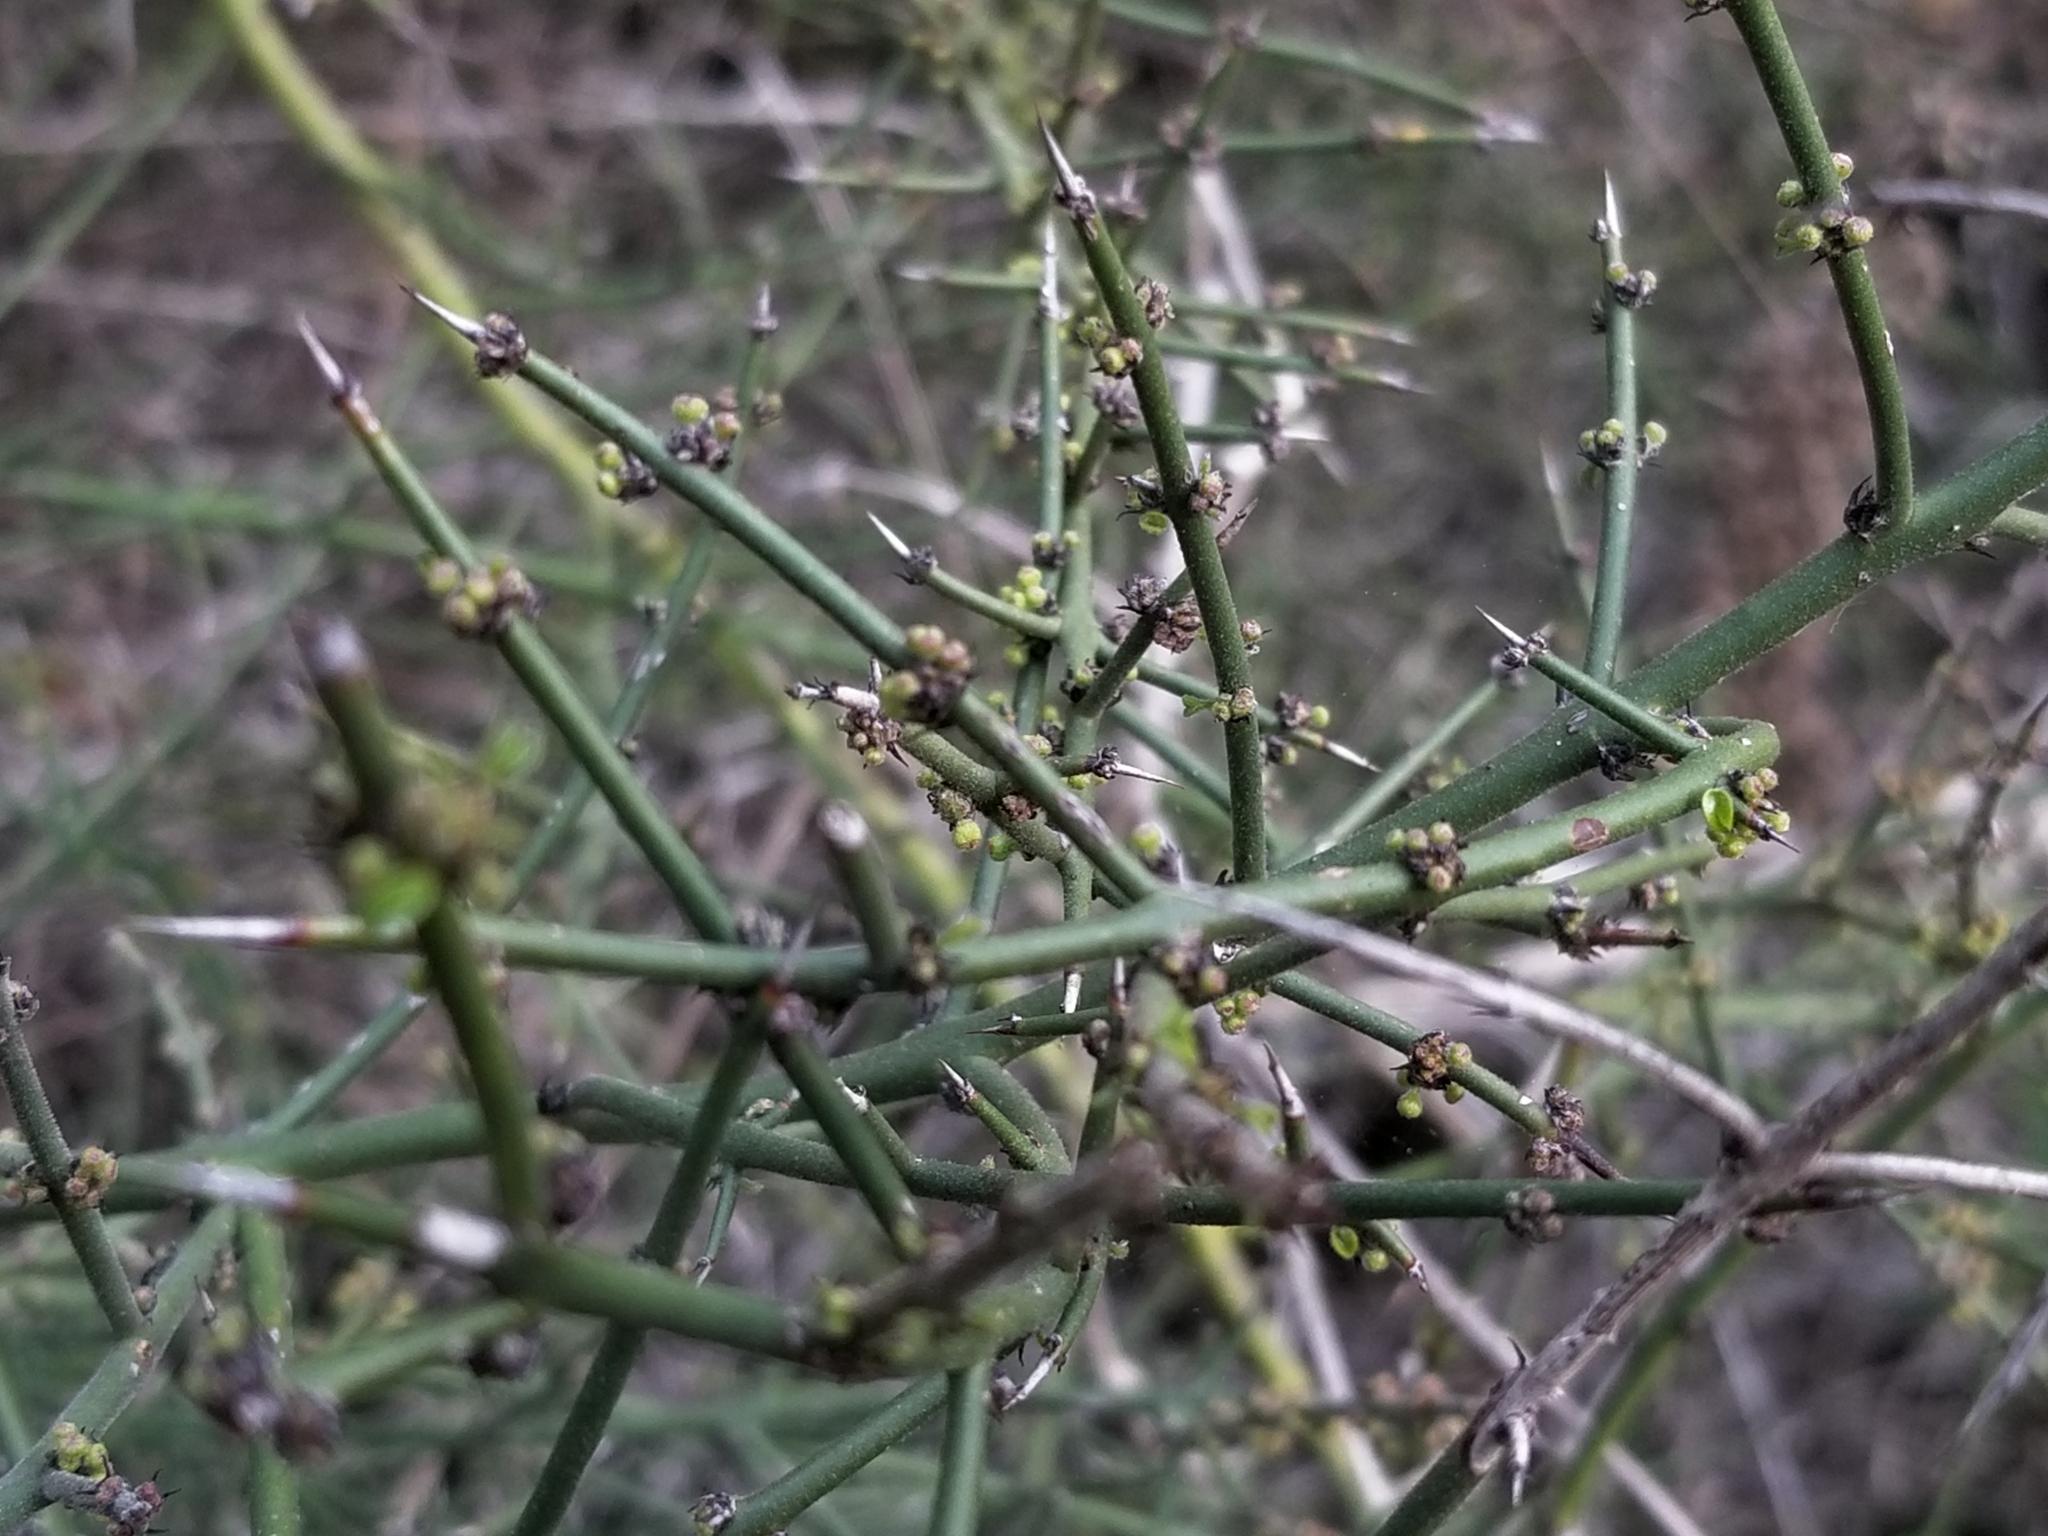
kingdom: Plantae
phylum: Tracheophyta
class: Magnoliopsida
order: Rosales
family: Rhamnaceae
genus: Adolphia
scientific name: Adolphia californica
